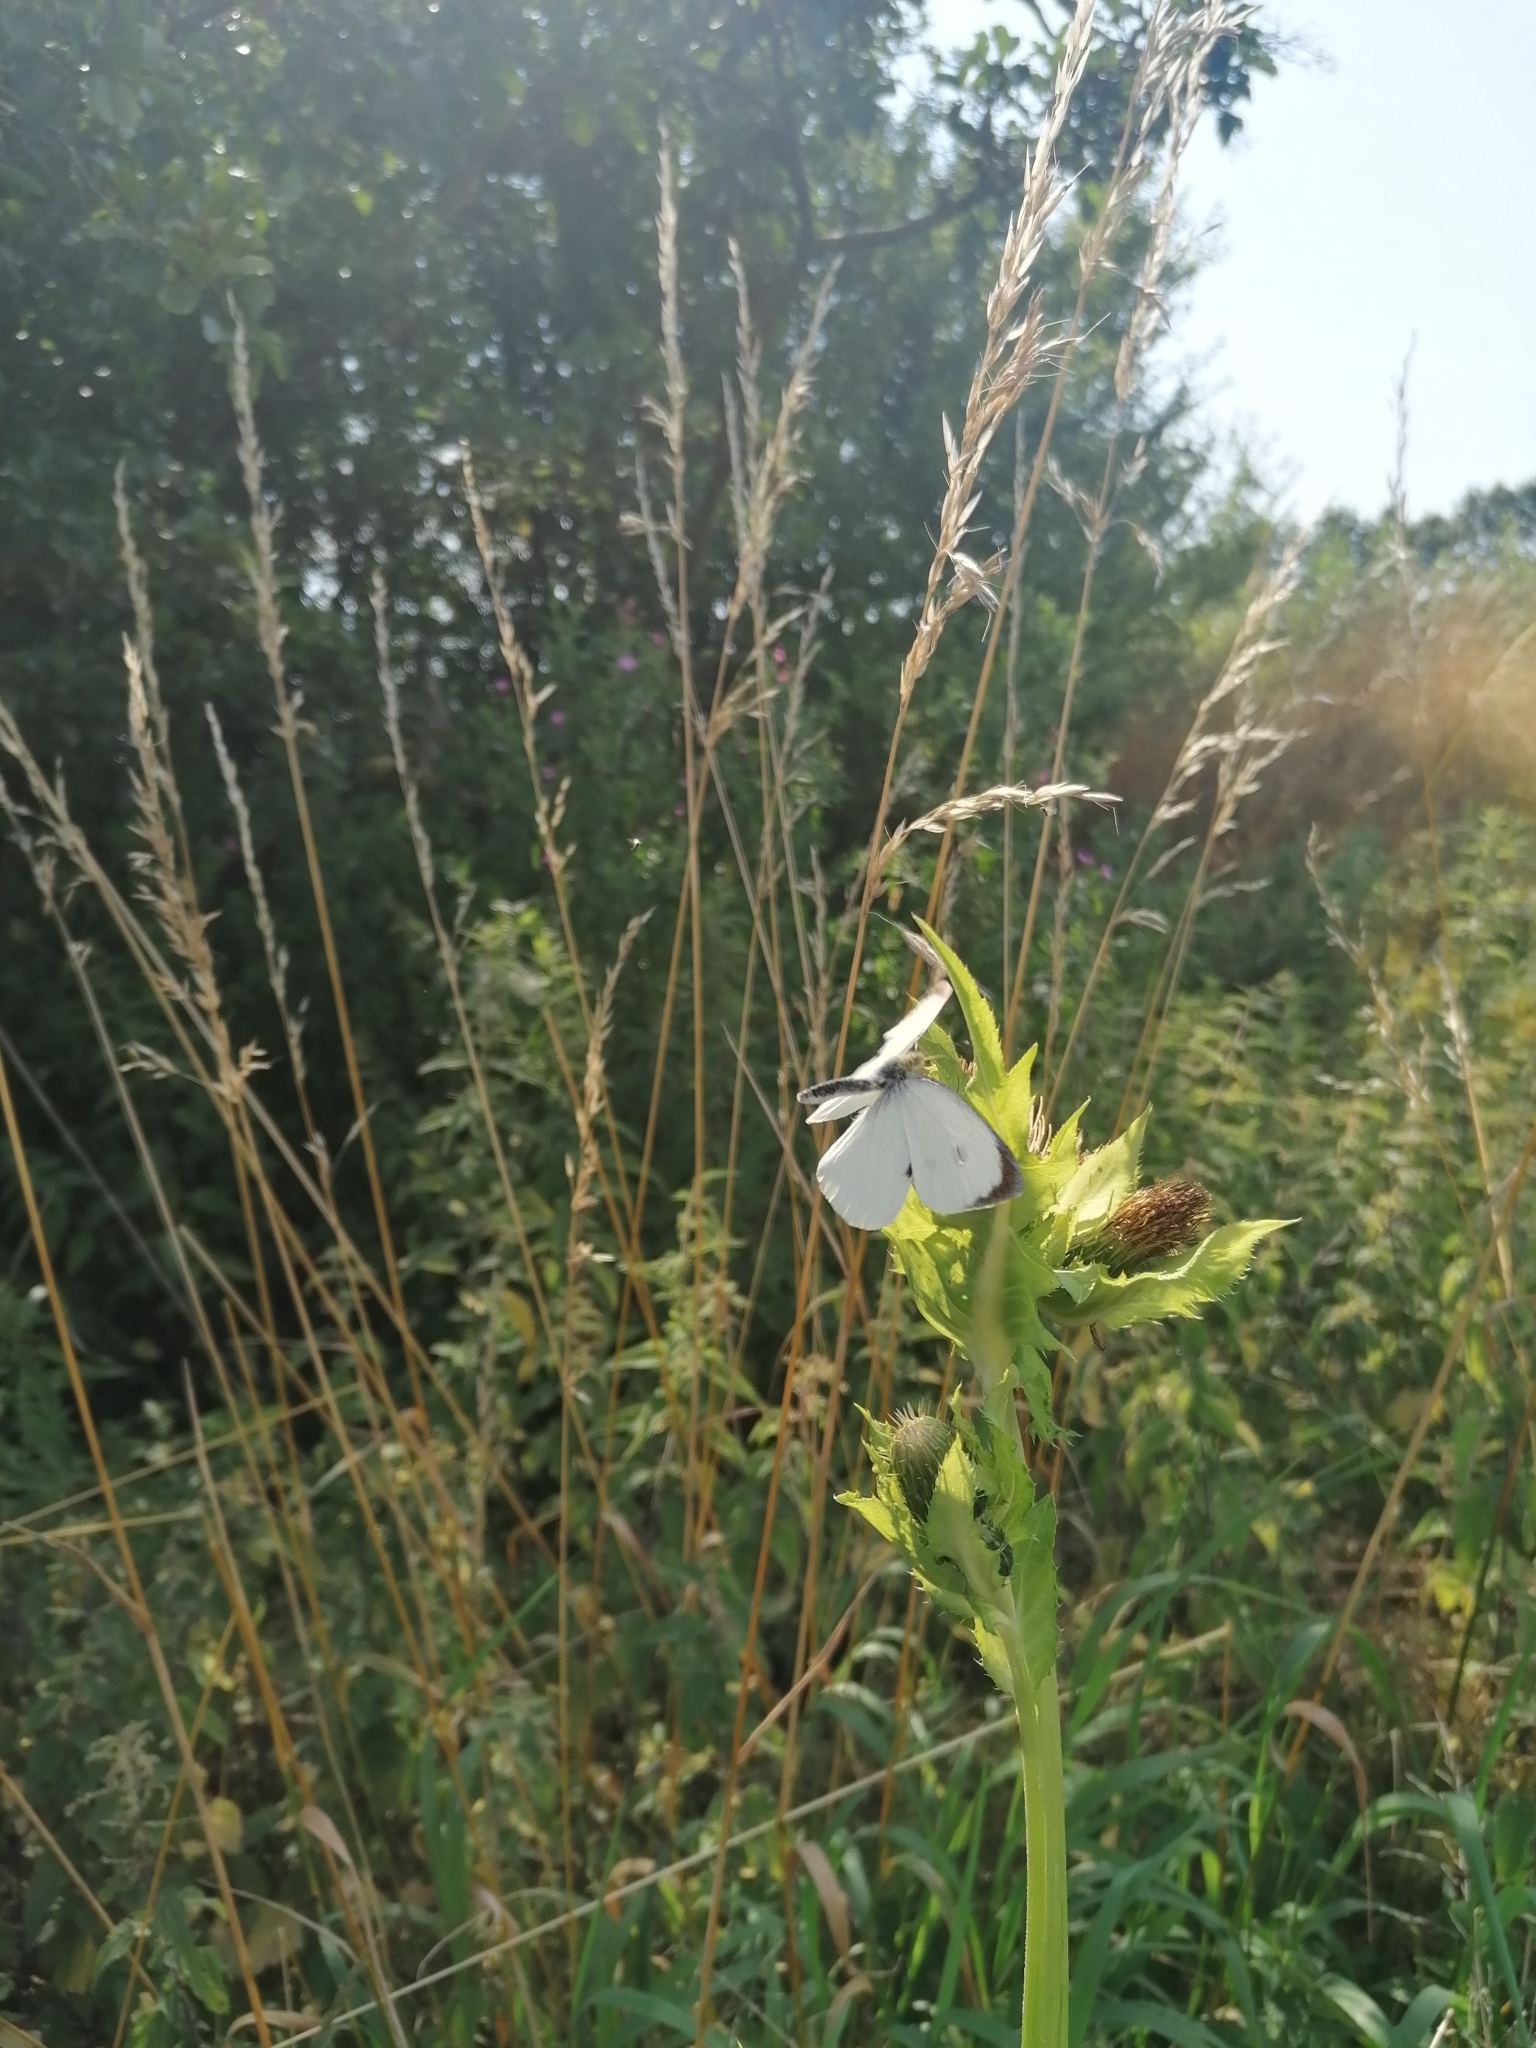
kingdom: Animalia
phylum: Arthropoda
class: Insecta
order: Lepidoptera
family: Pieridae
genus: Pieris
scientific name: Pieris brassicae
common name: Large white
